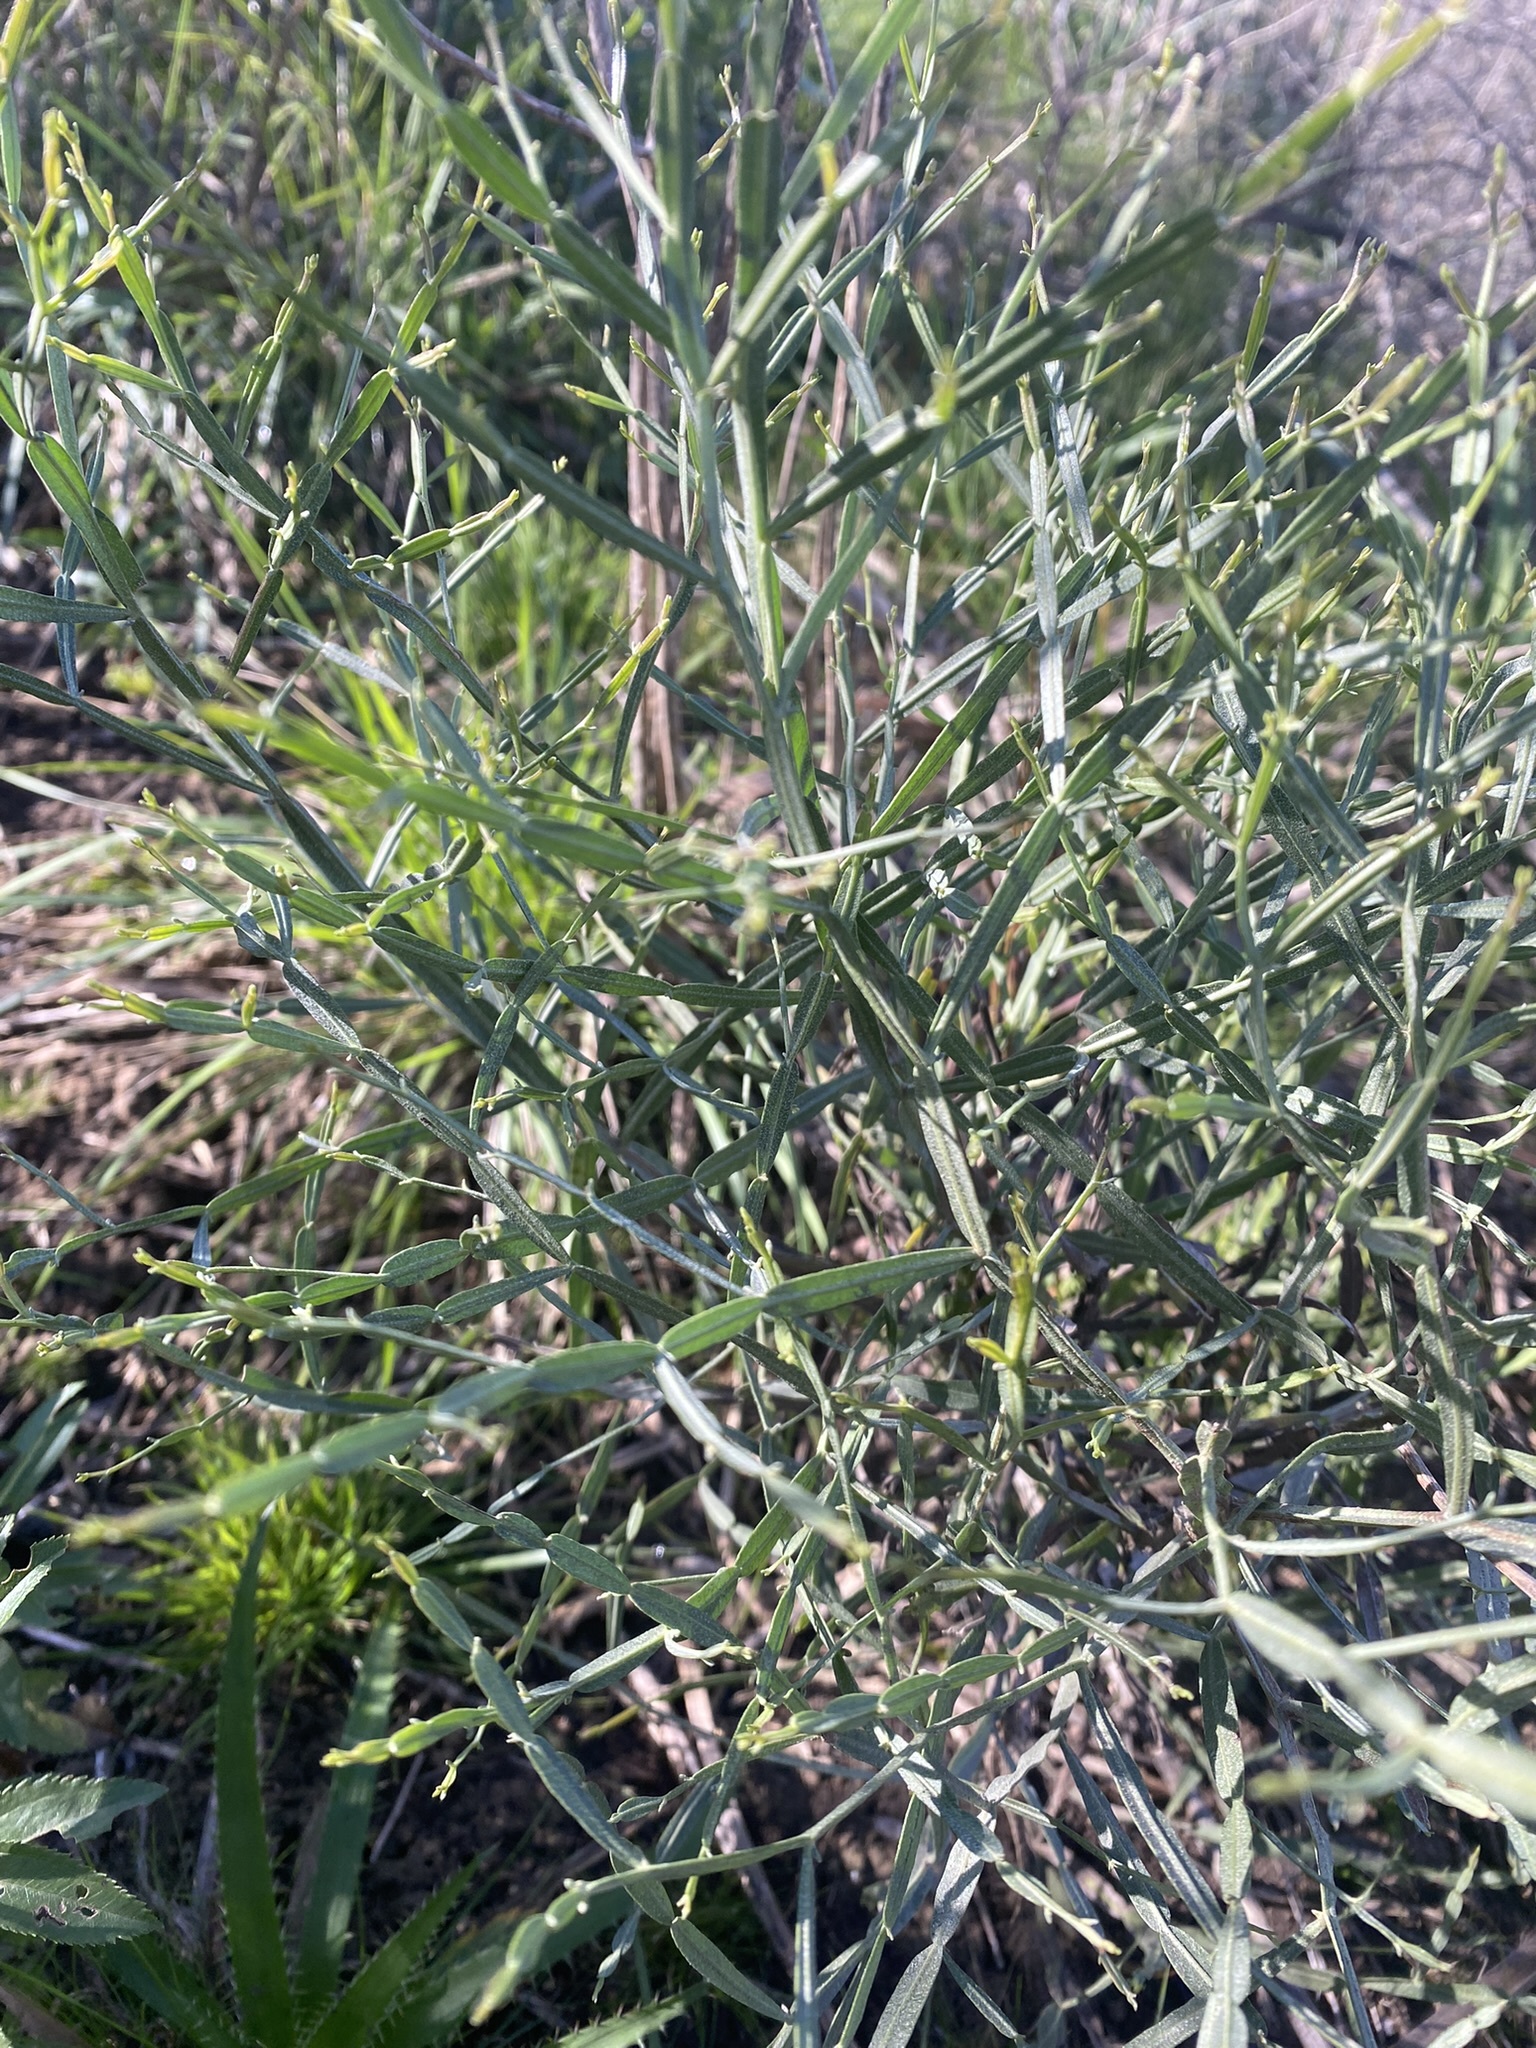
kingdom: Plantae
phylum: Tracheophyta
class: Magnoliopsida
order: Asterales
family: Asteraceae
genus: Baccharis
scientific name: Baccharis trimera
